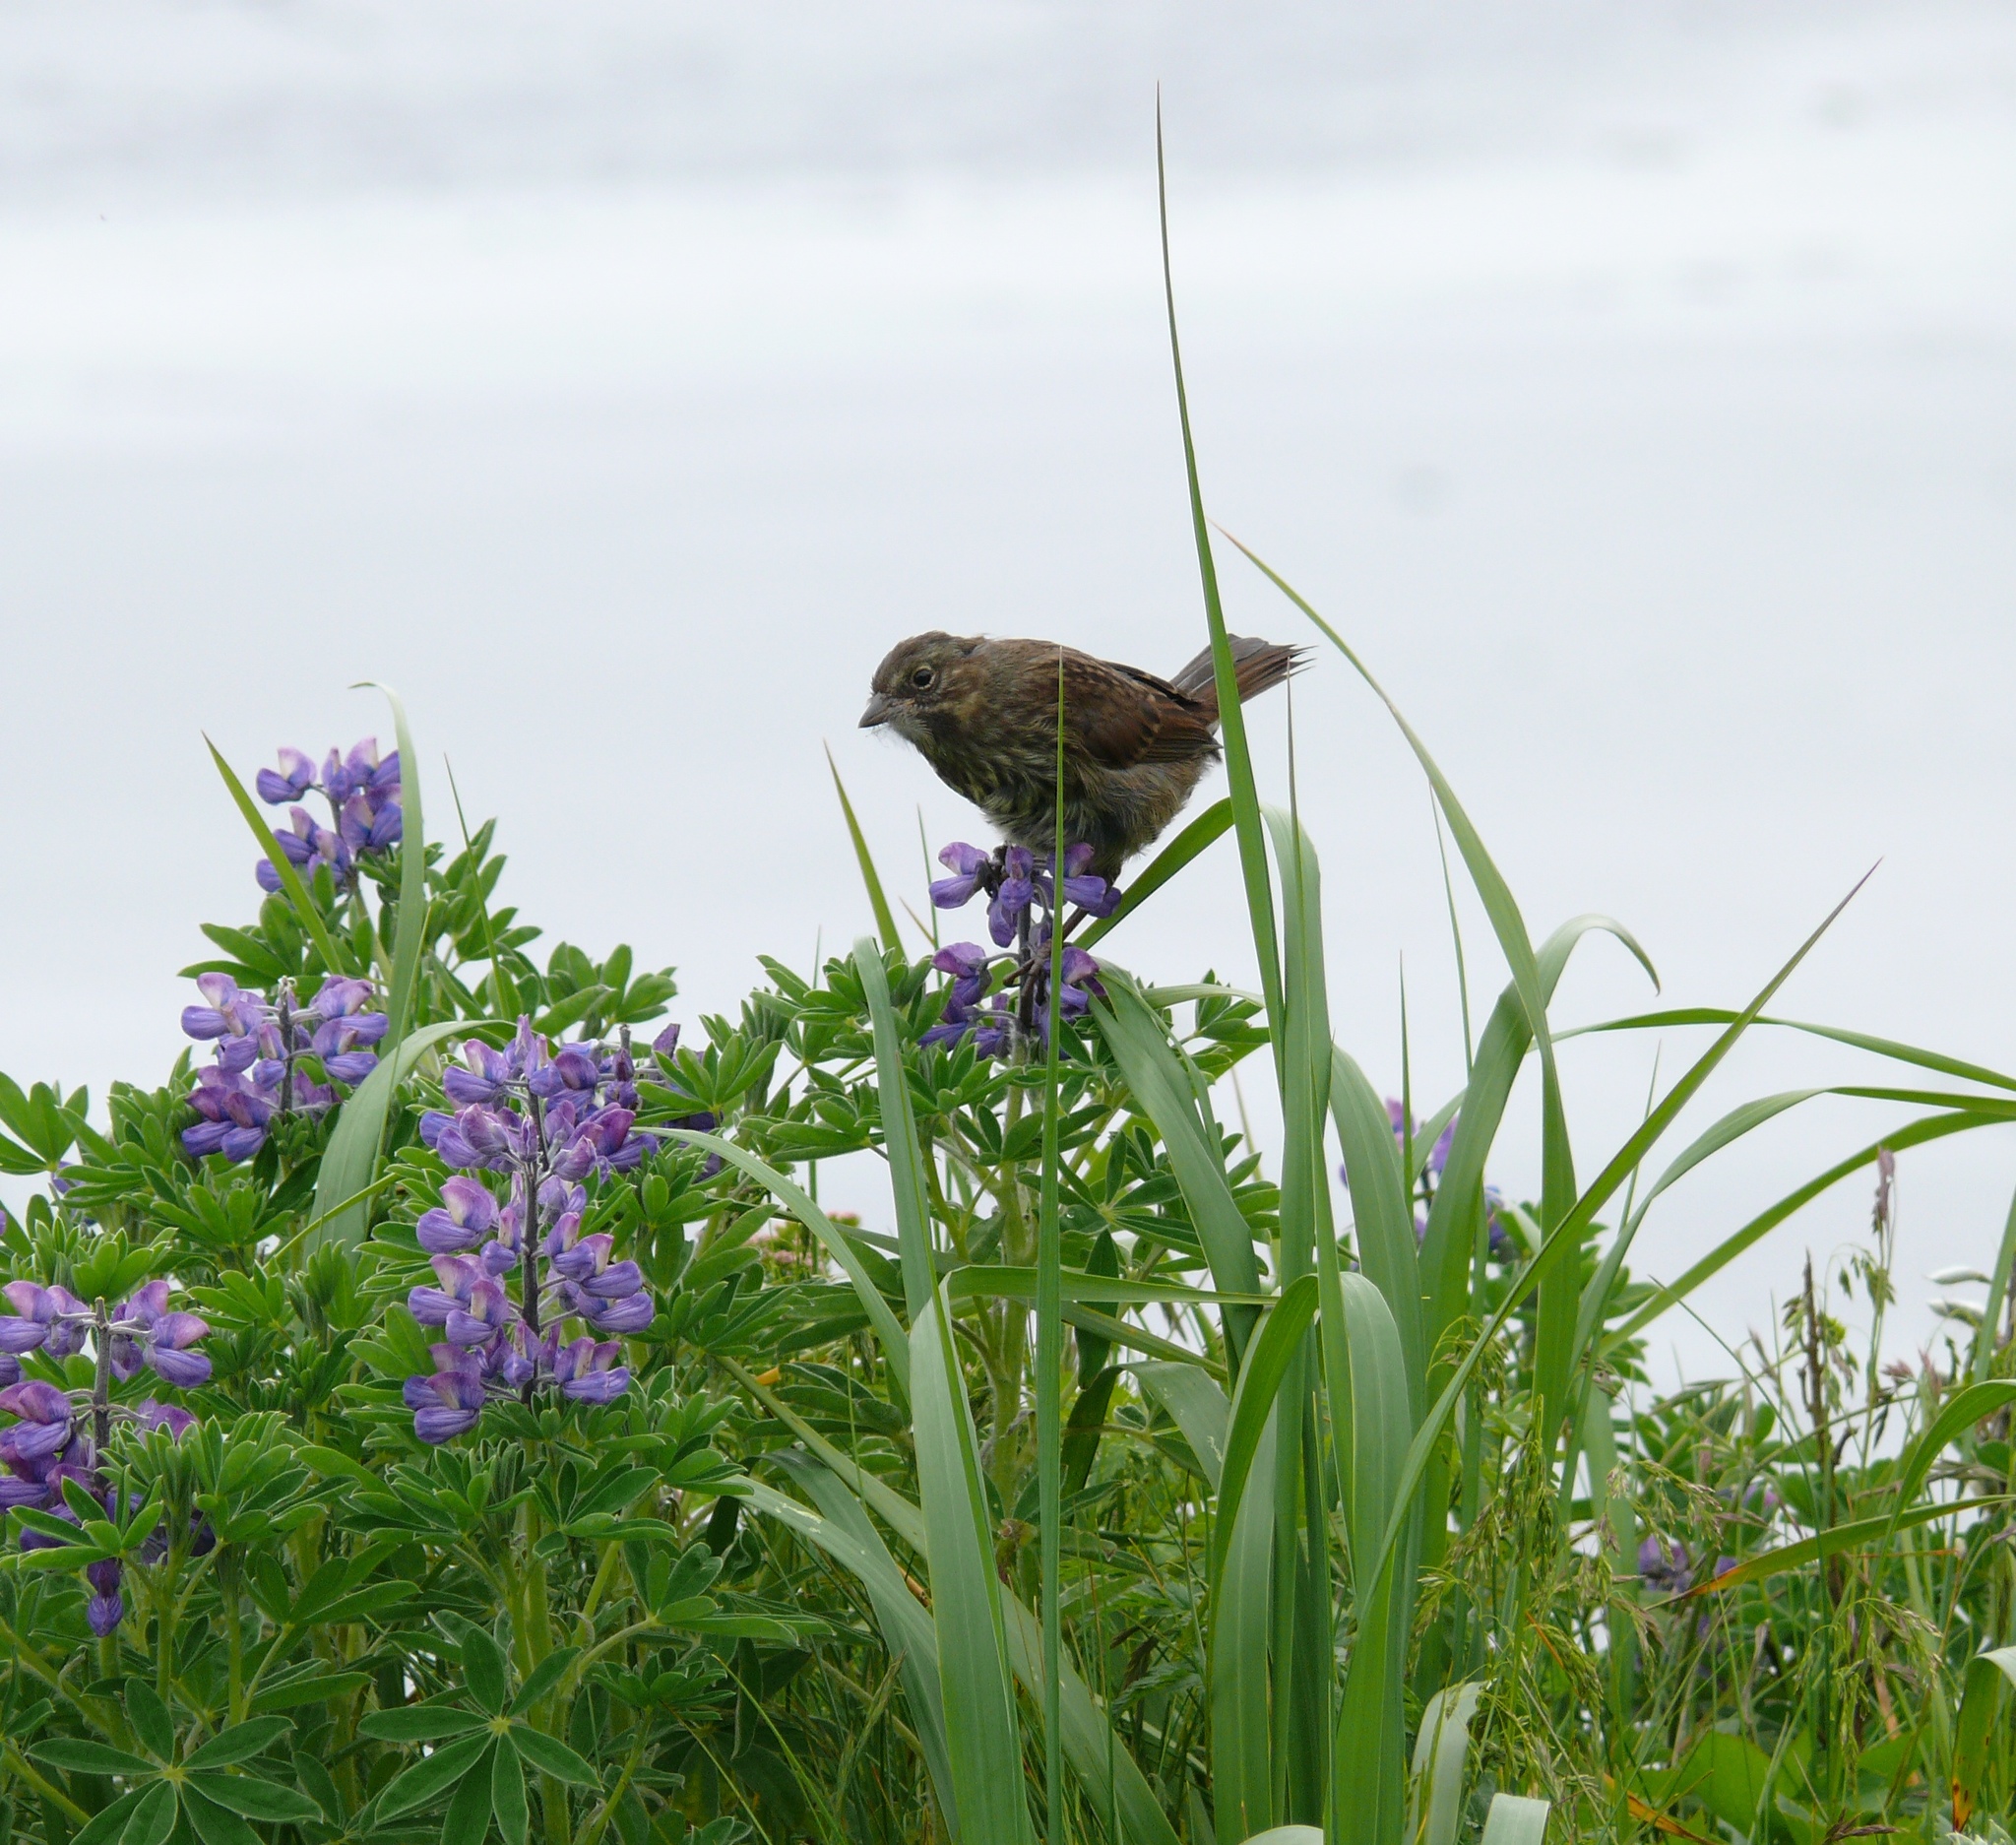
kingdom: Animalia
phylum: Chordata
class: Aves
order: Passeriformes
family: Passerellidae
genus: Melospiza
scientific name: Melospiza melodia
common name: Song sparrow
